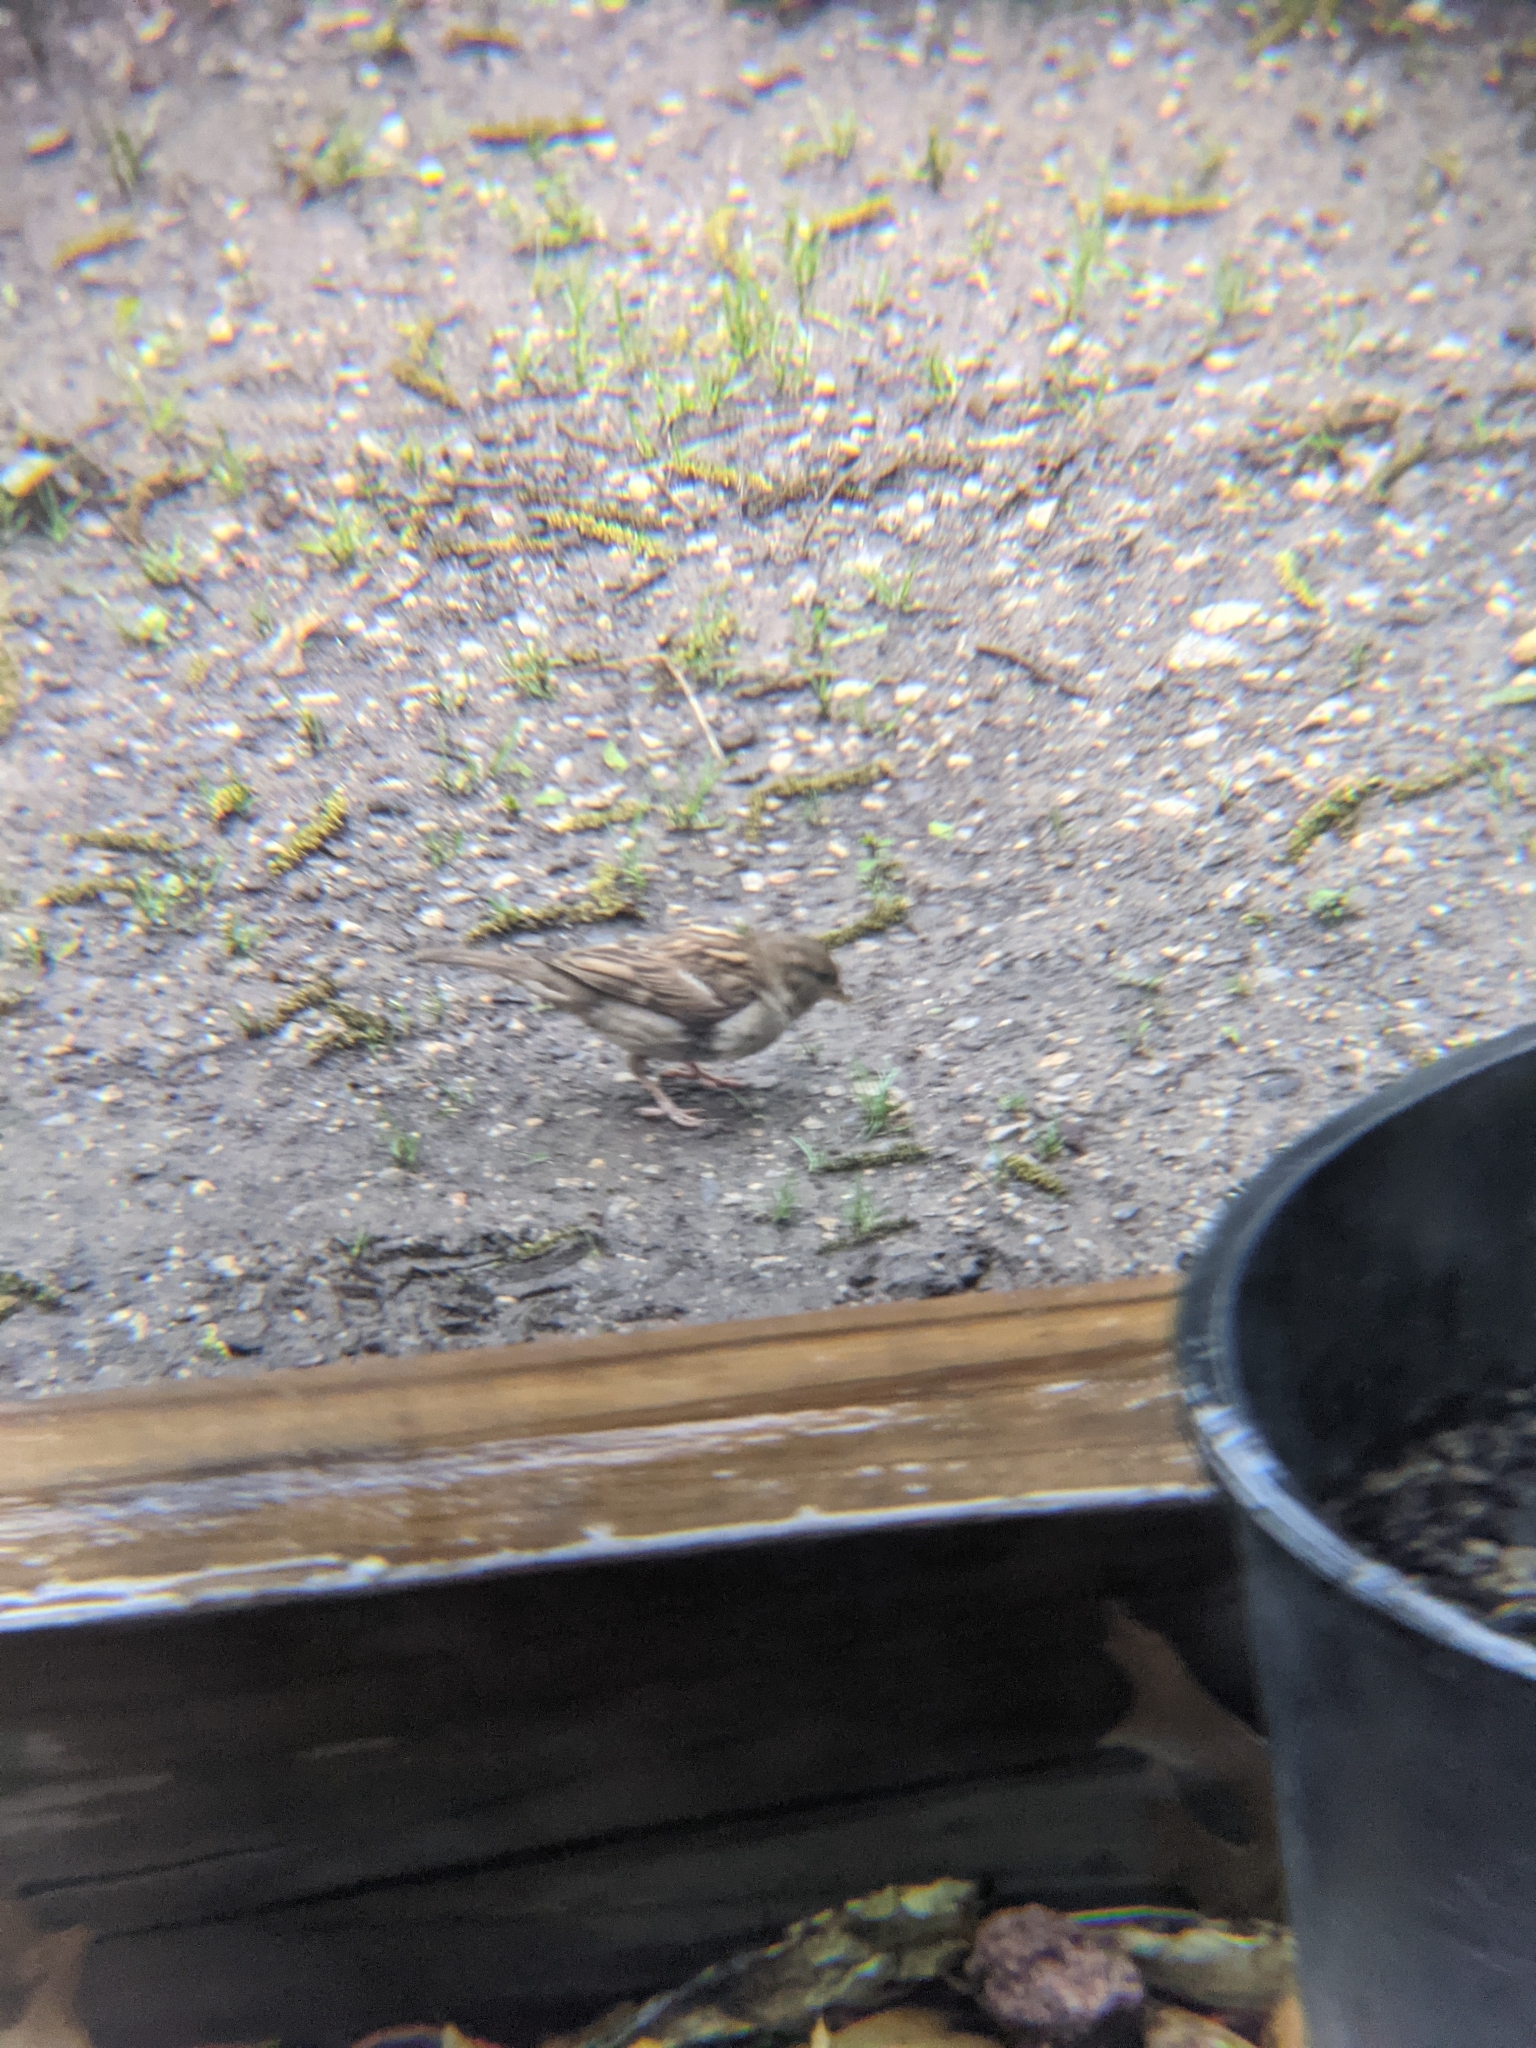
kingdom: Animalia
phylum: Chordata
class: Aves
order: Passeriformes
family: Passeridae
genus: Passer
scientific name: Passer domesticus
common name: House sparrow
